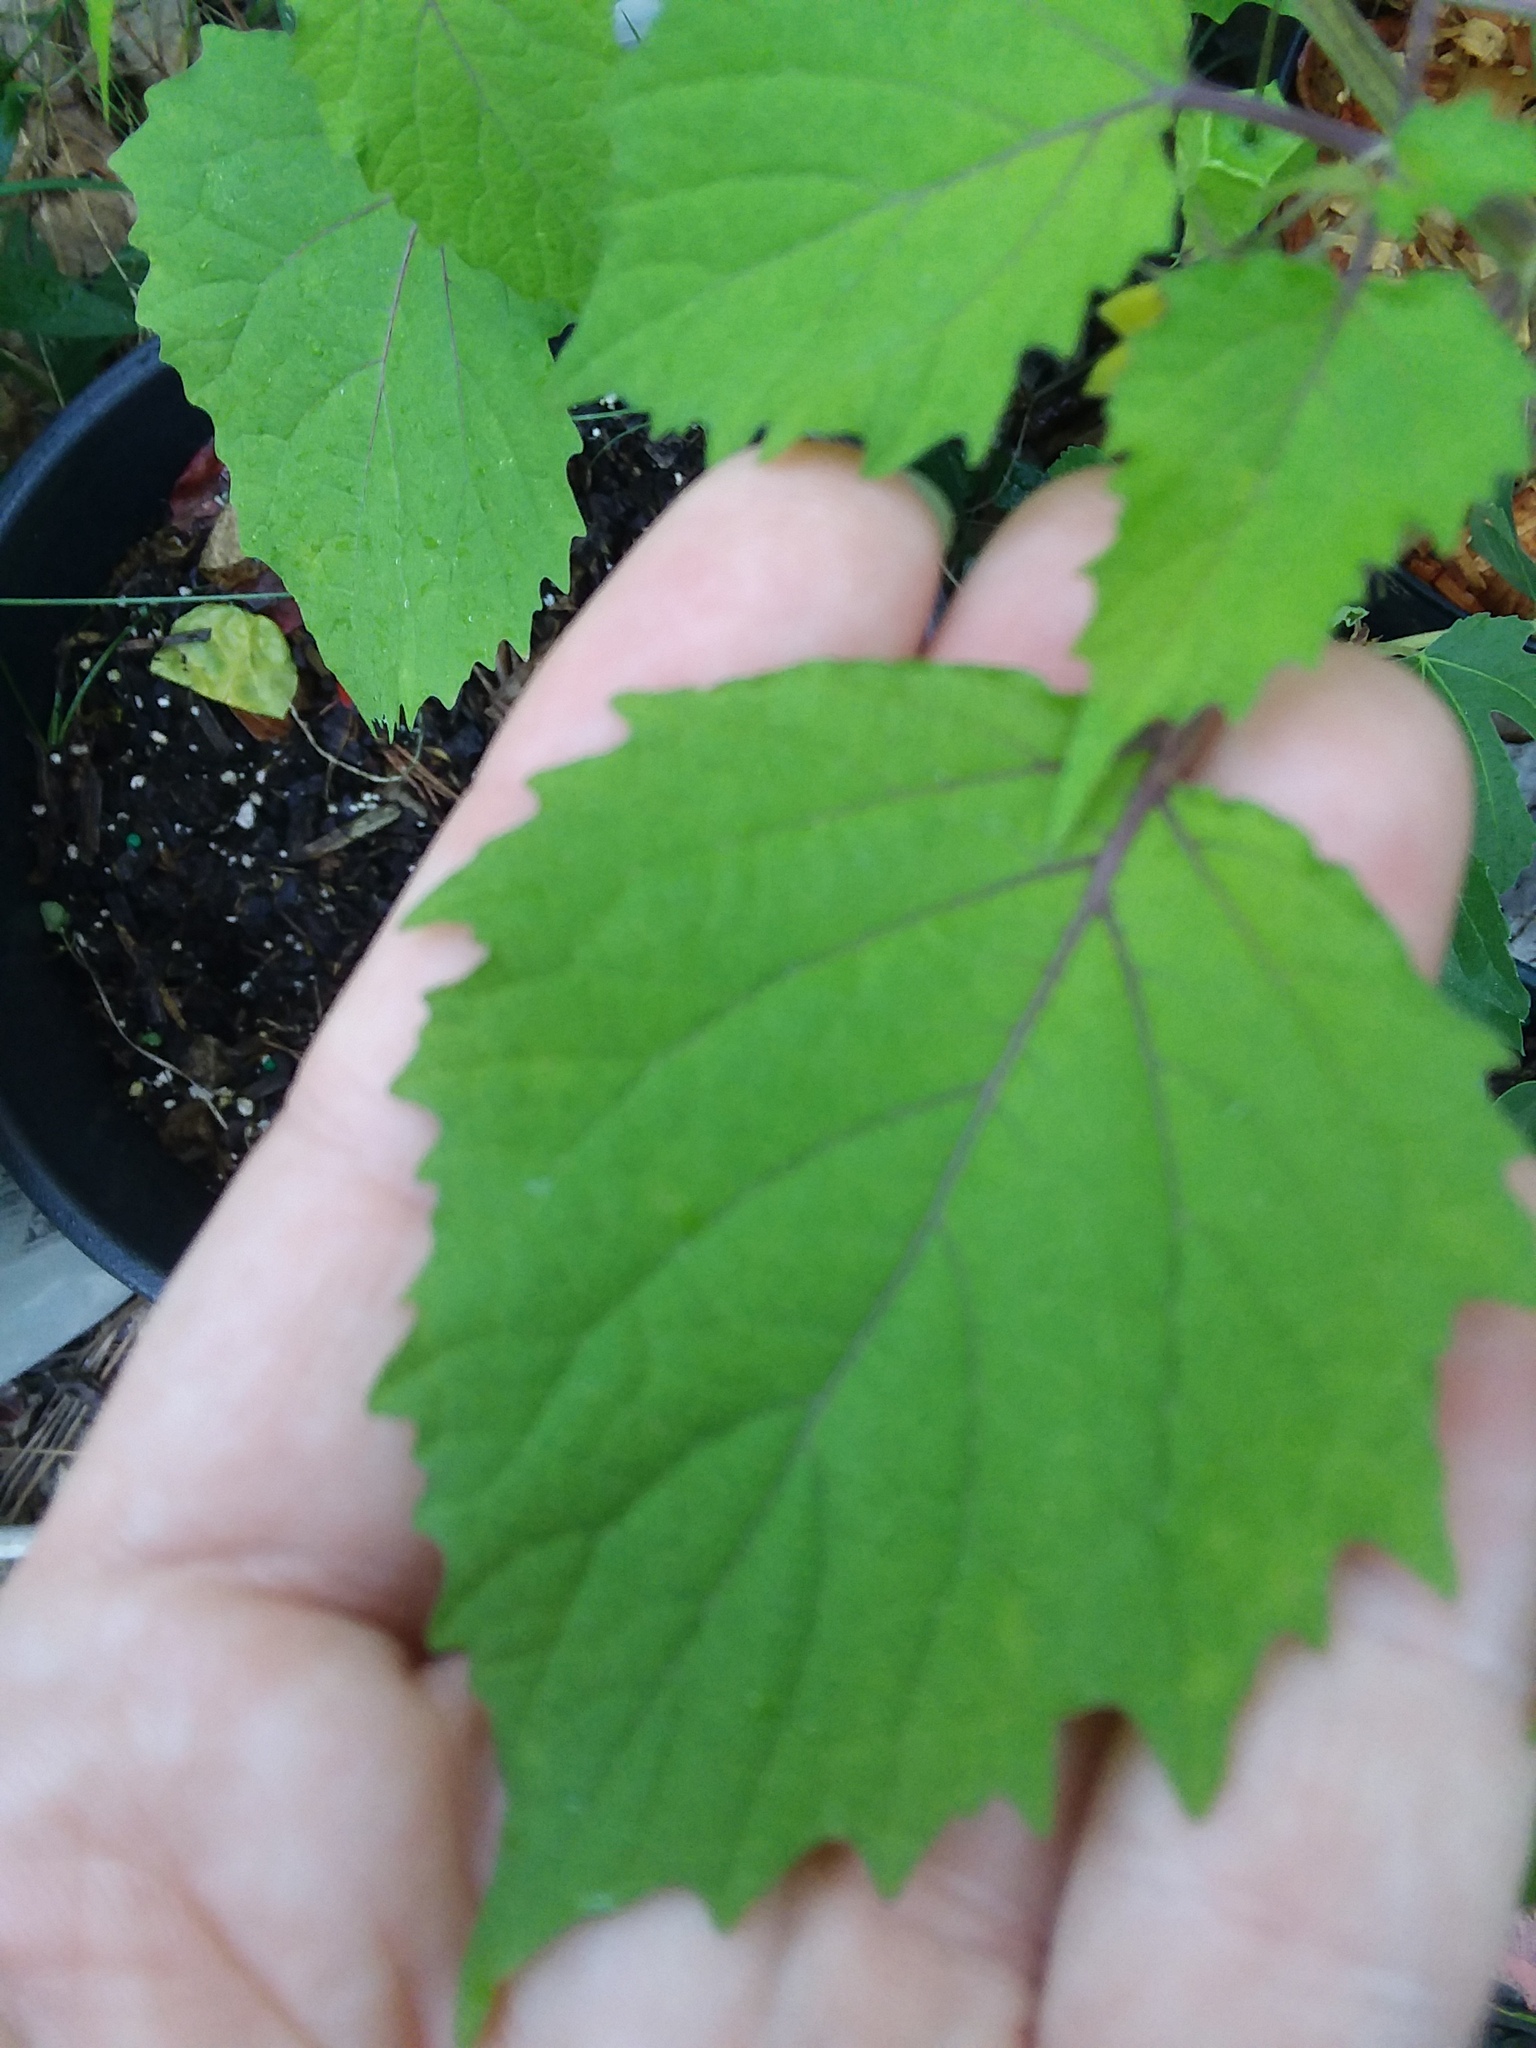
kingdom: Plantae
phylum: Tracheophyta
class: Magnoliopsida
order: Solanales
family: Solanaceae
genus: Physalis
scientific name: Physalis cordata
